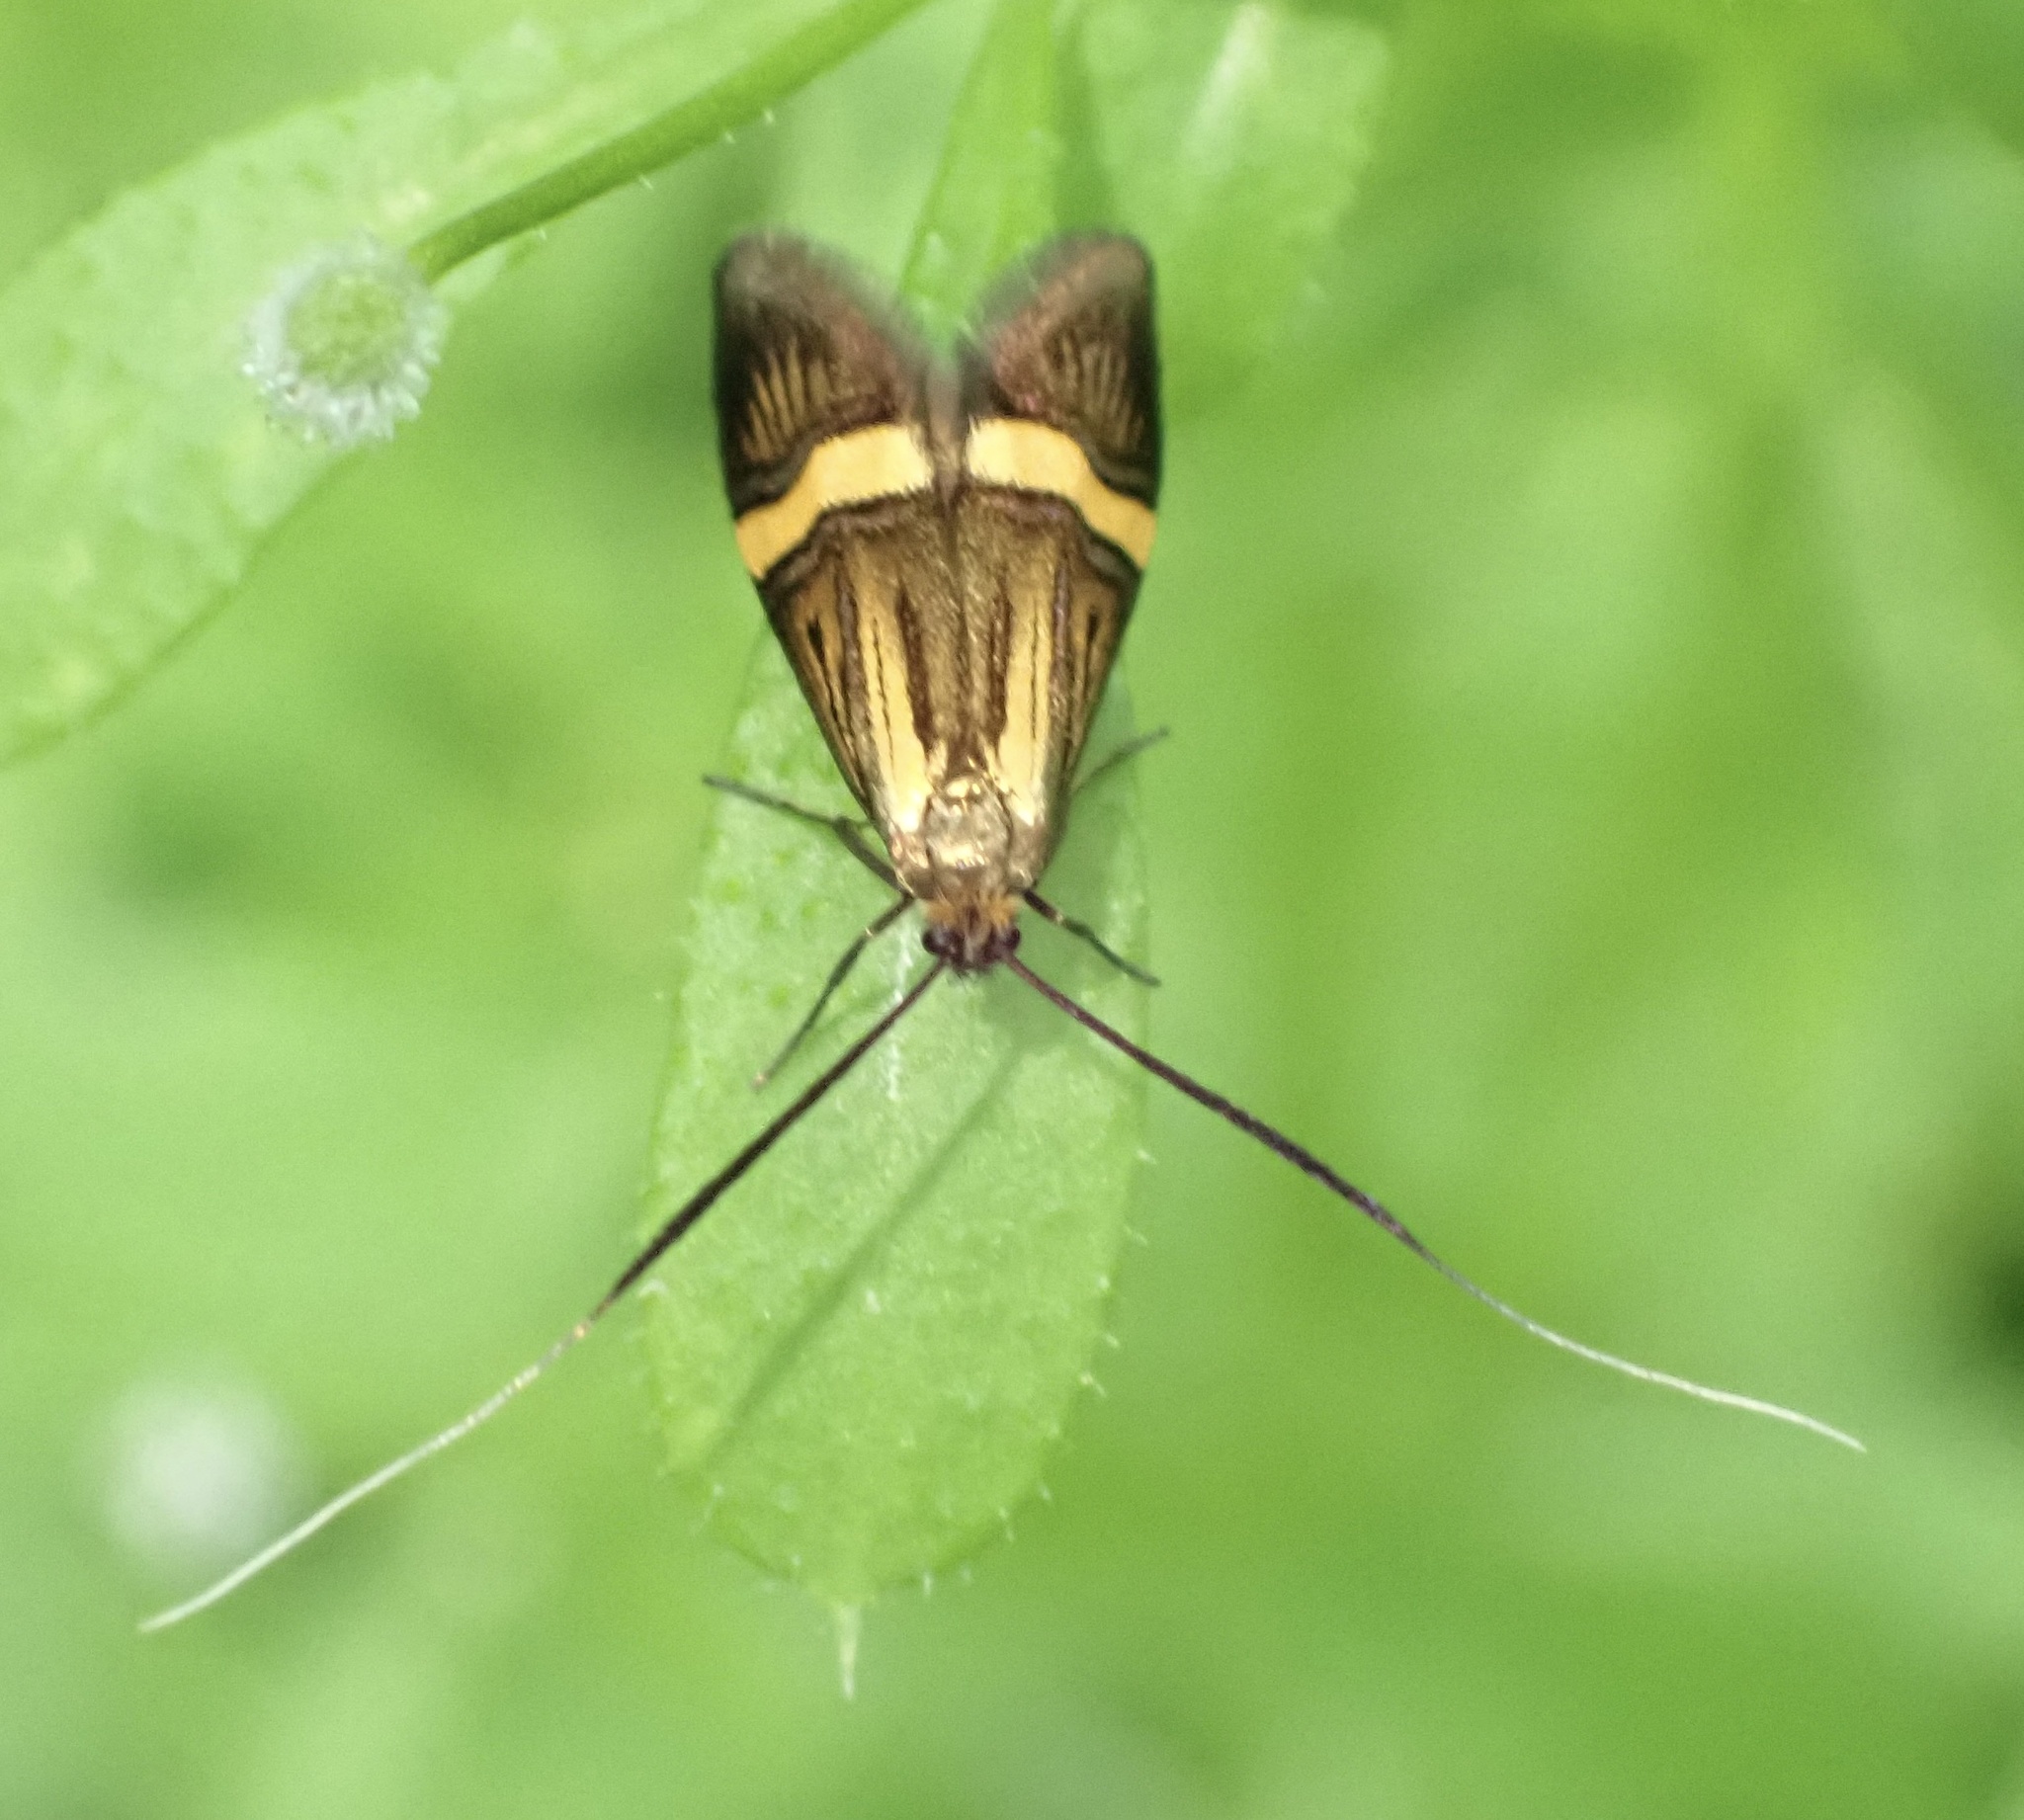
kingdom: Animalia
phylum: Arthropoda
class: Insecta
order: Lepidoptera
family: Adelidae
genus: Nemophora
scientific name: Nemophora degeerella
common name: Yellow-barred long-horn
